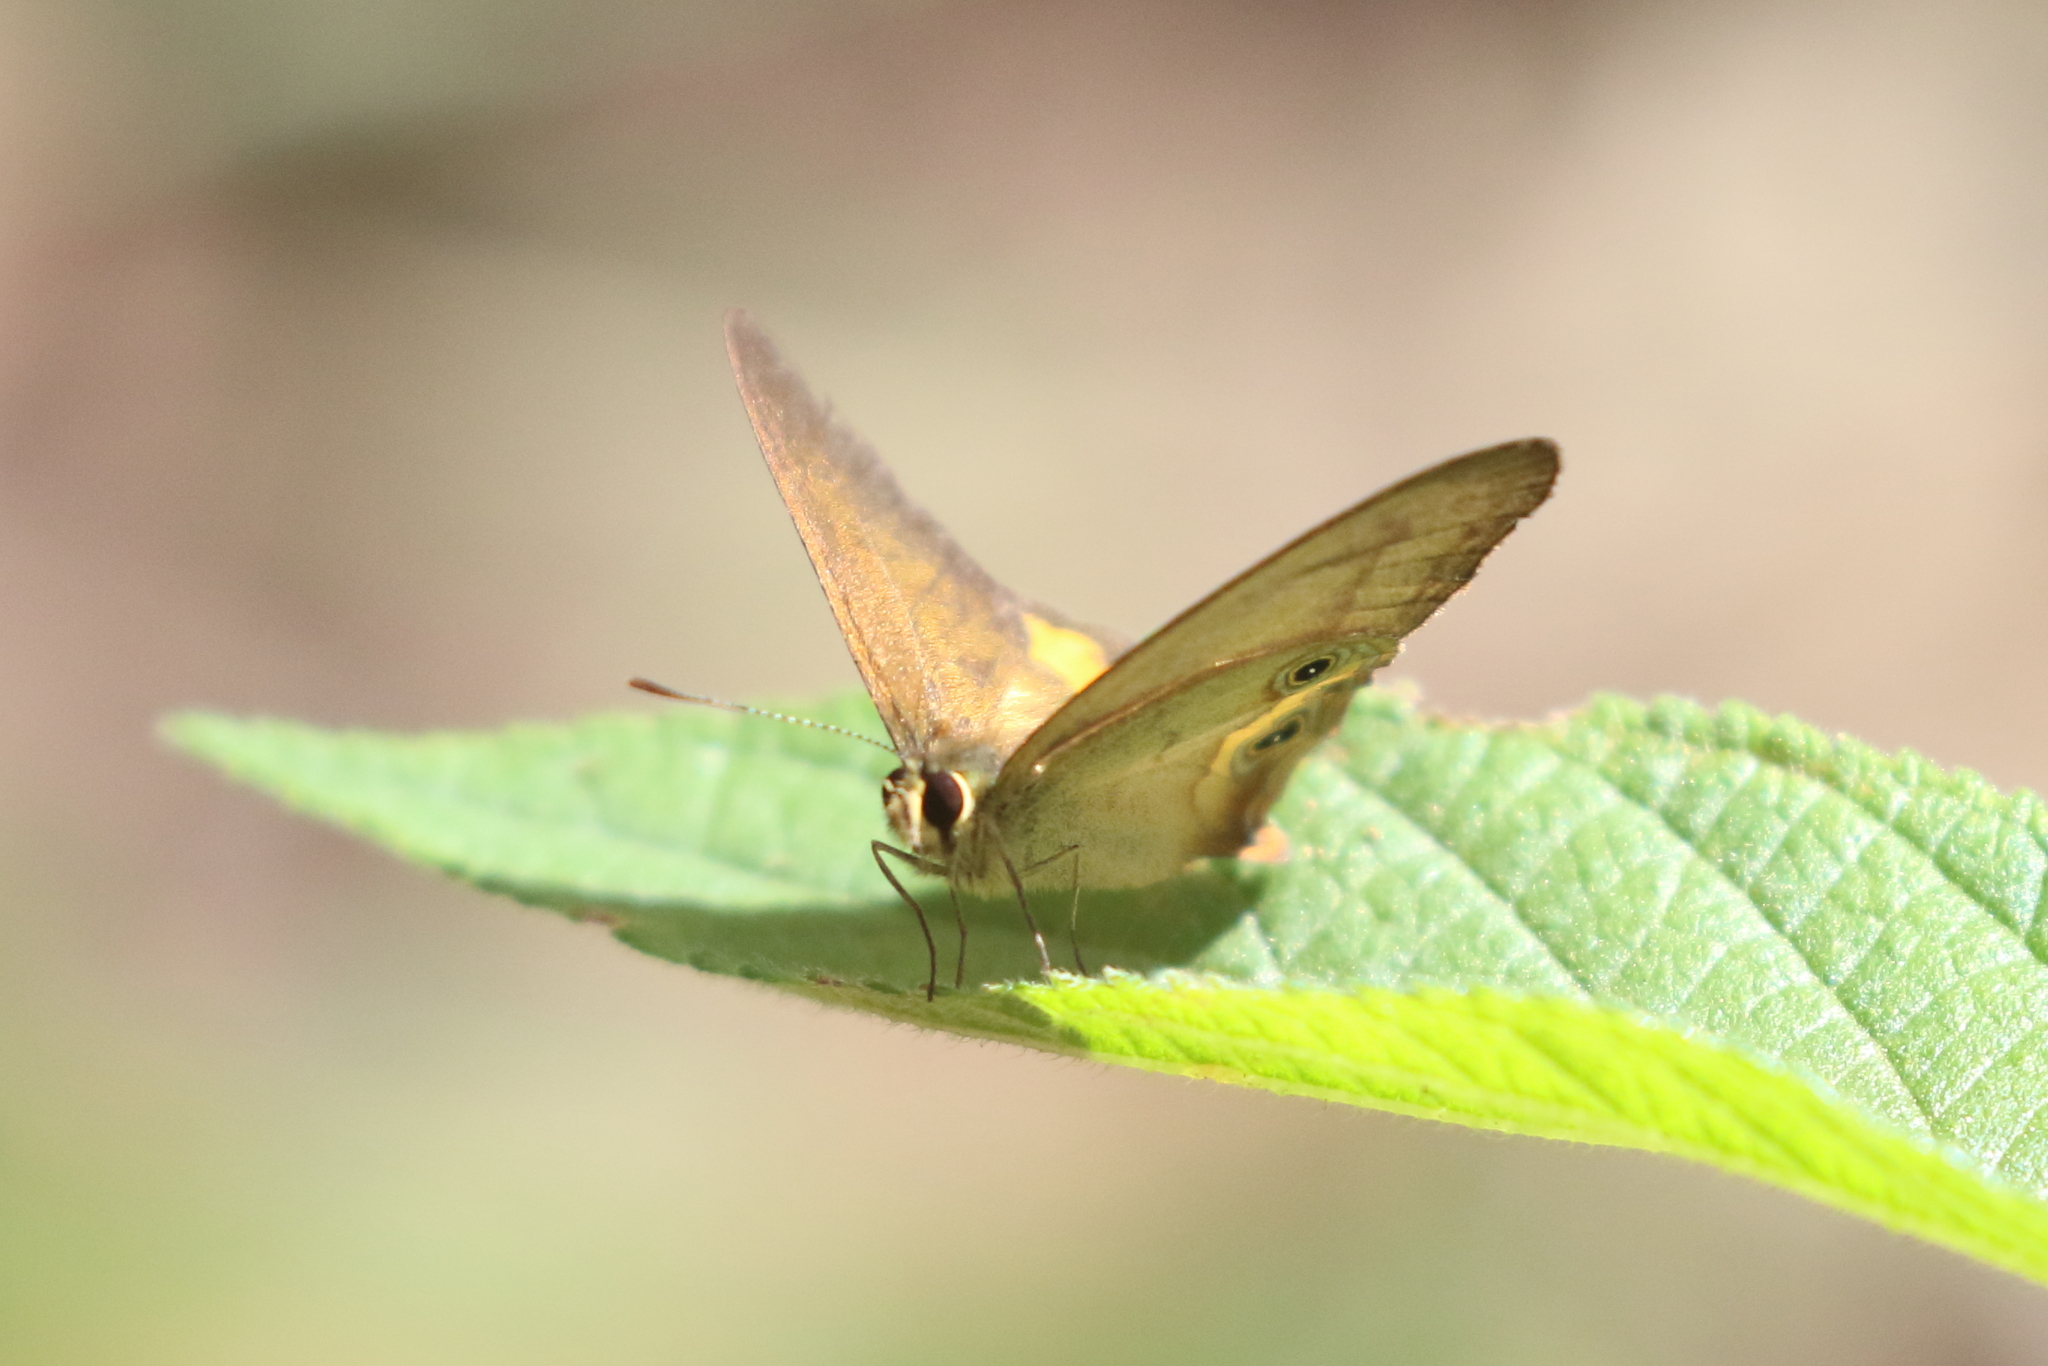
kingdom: Animalia
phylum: Arthropoda
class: Insecta
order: Lepidoptera
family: Nymphalidae
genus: Hypocysta
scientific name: Hypocysta metirius
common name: Brown ringlet
